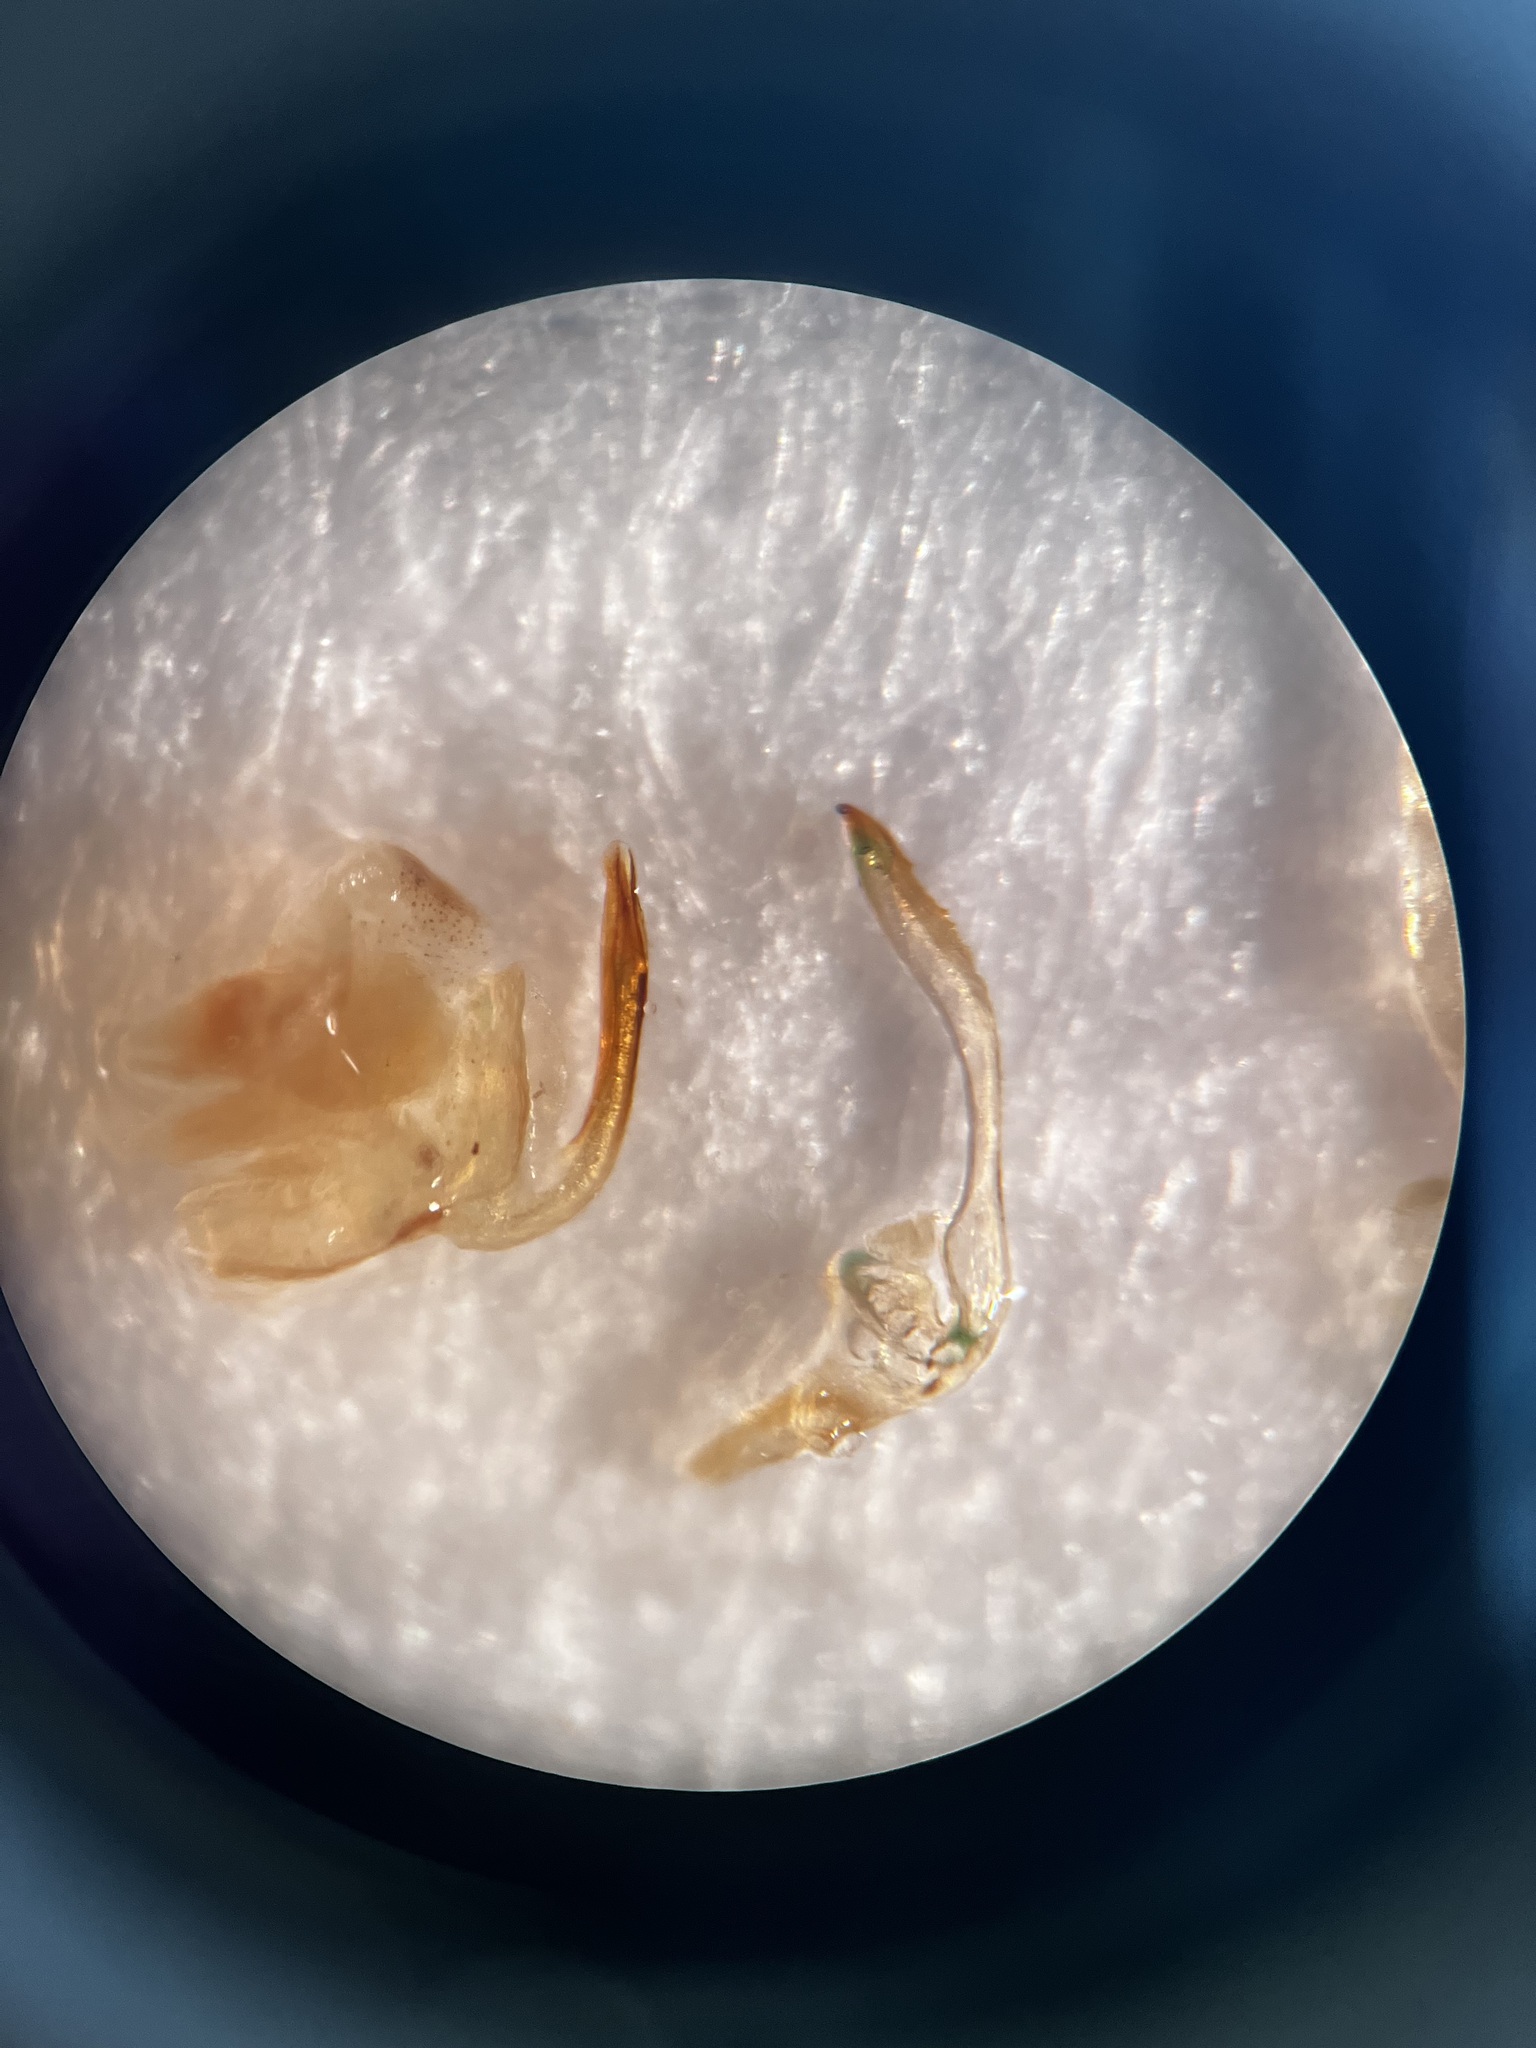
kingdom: Animalia
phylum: Arthropoda
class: Insecta
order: Hemiptera
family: Cicadellidae
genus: Batracomorphus
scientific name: Batracomorphus allionii
